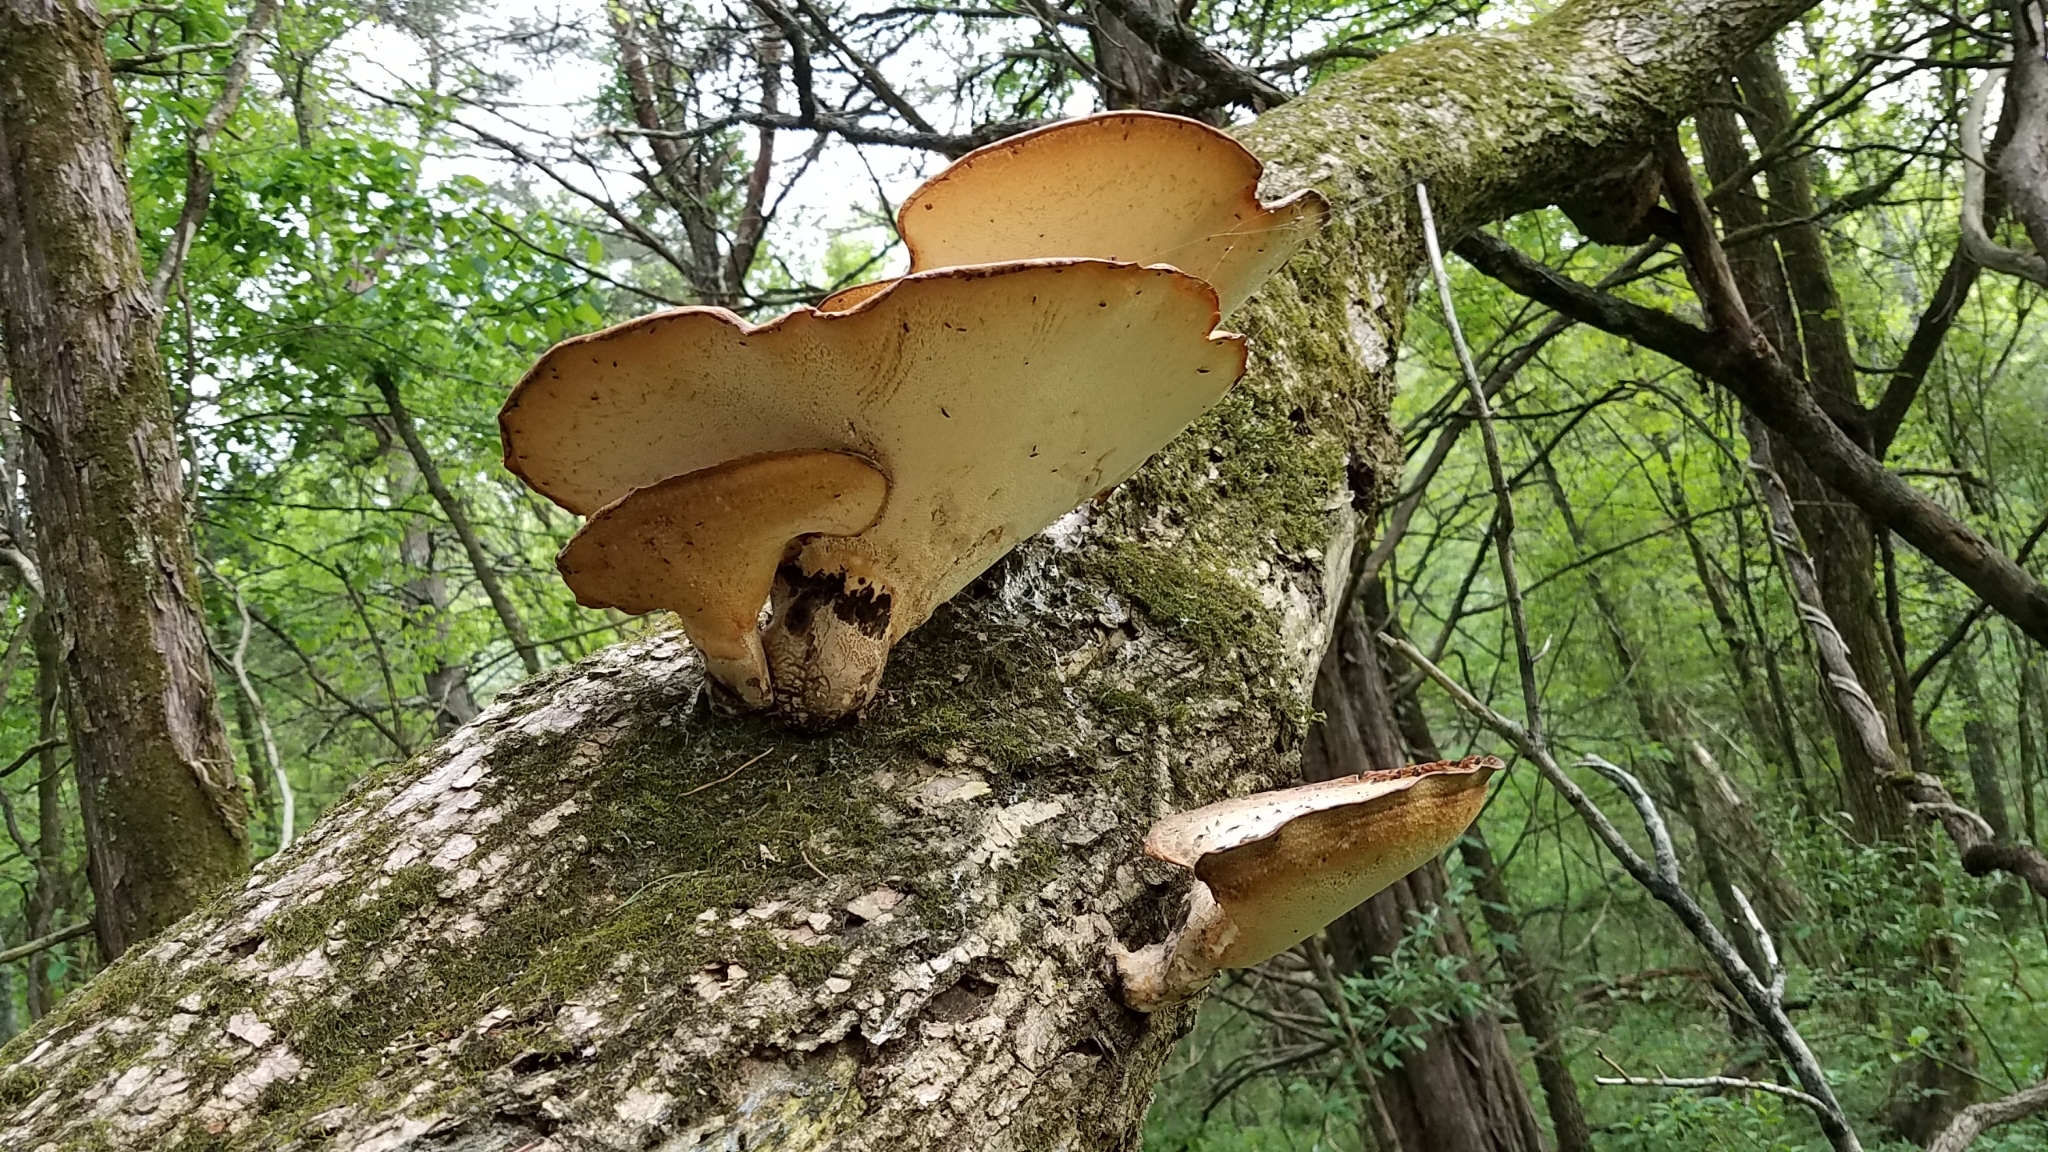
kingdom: Fungi
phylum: Basidiomycota
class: Agaricomycetes
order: Polyporales
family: Polyporaceae
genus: Cerioporus
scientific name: Cerioporus squamosus
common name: Dryad's saddle
